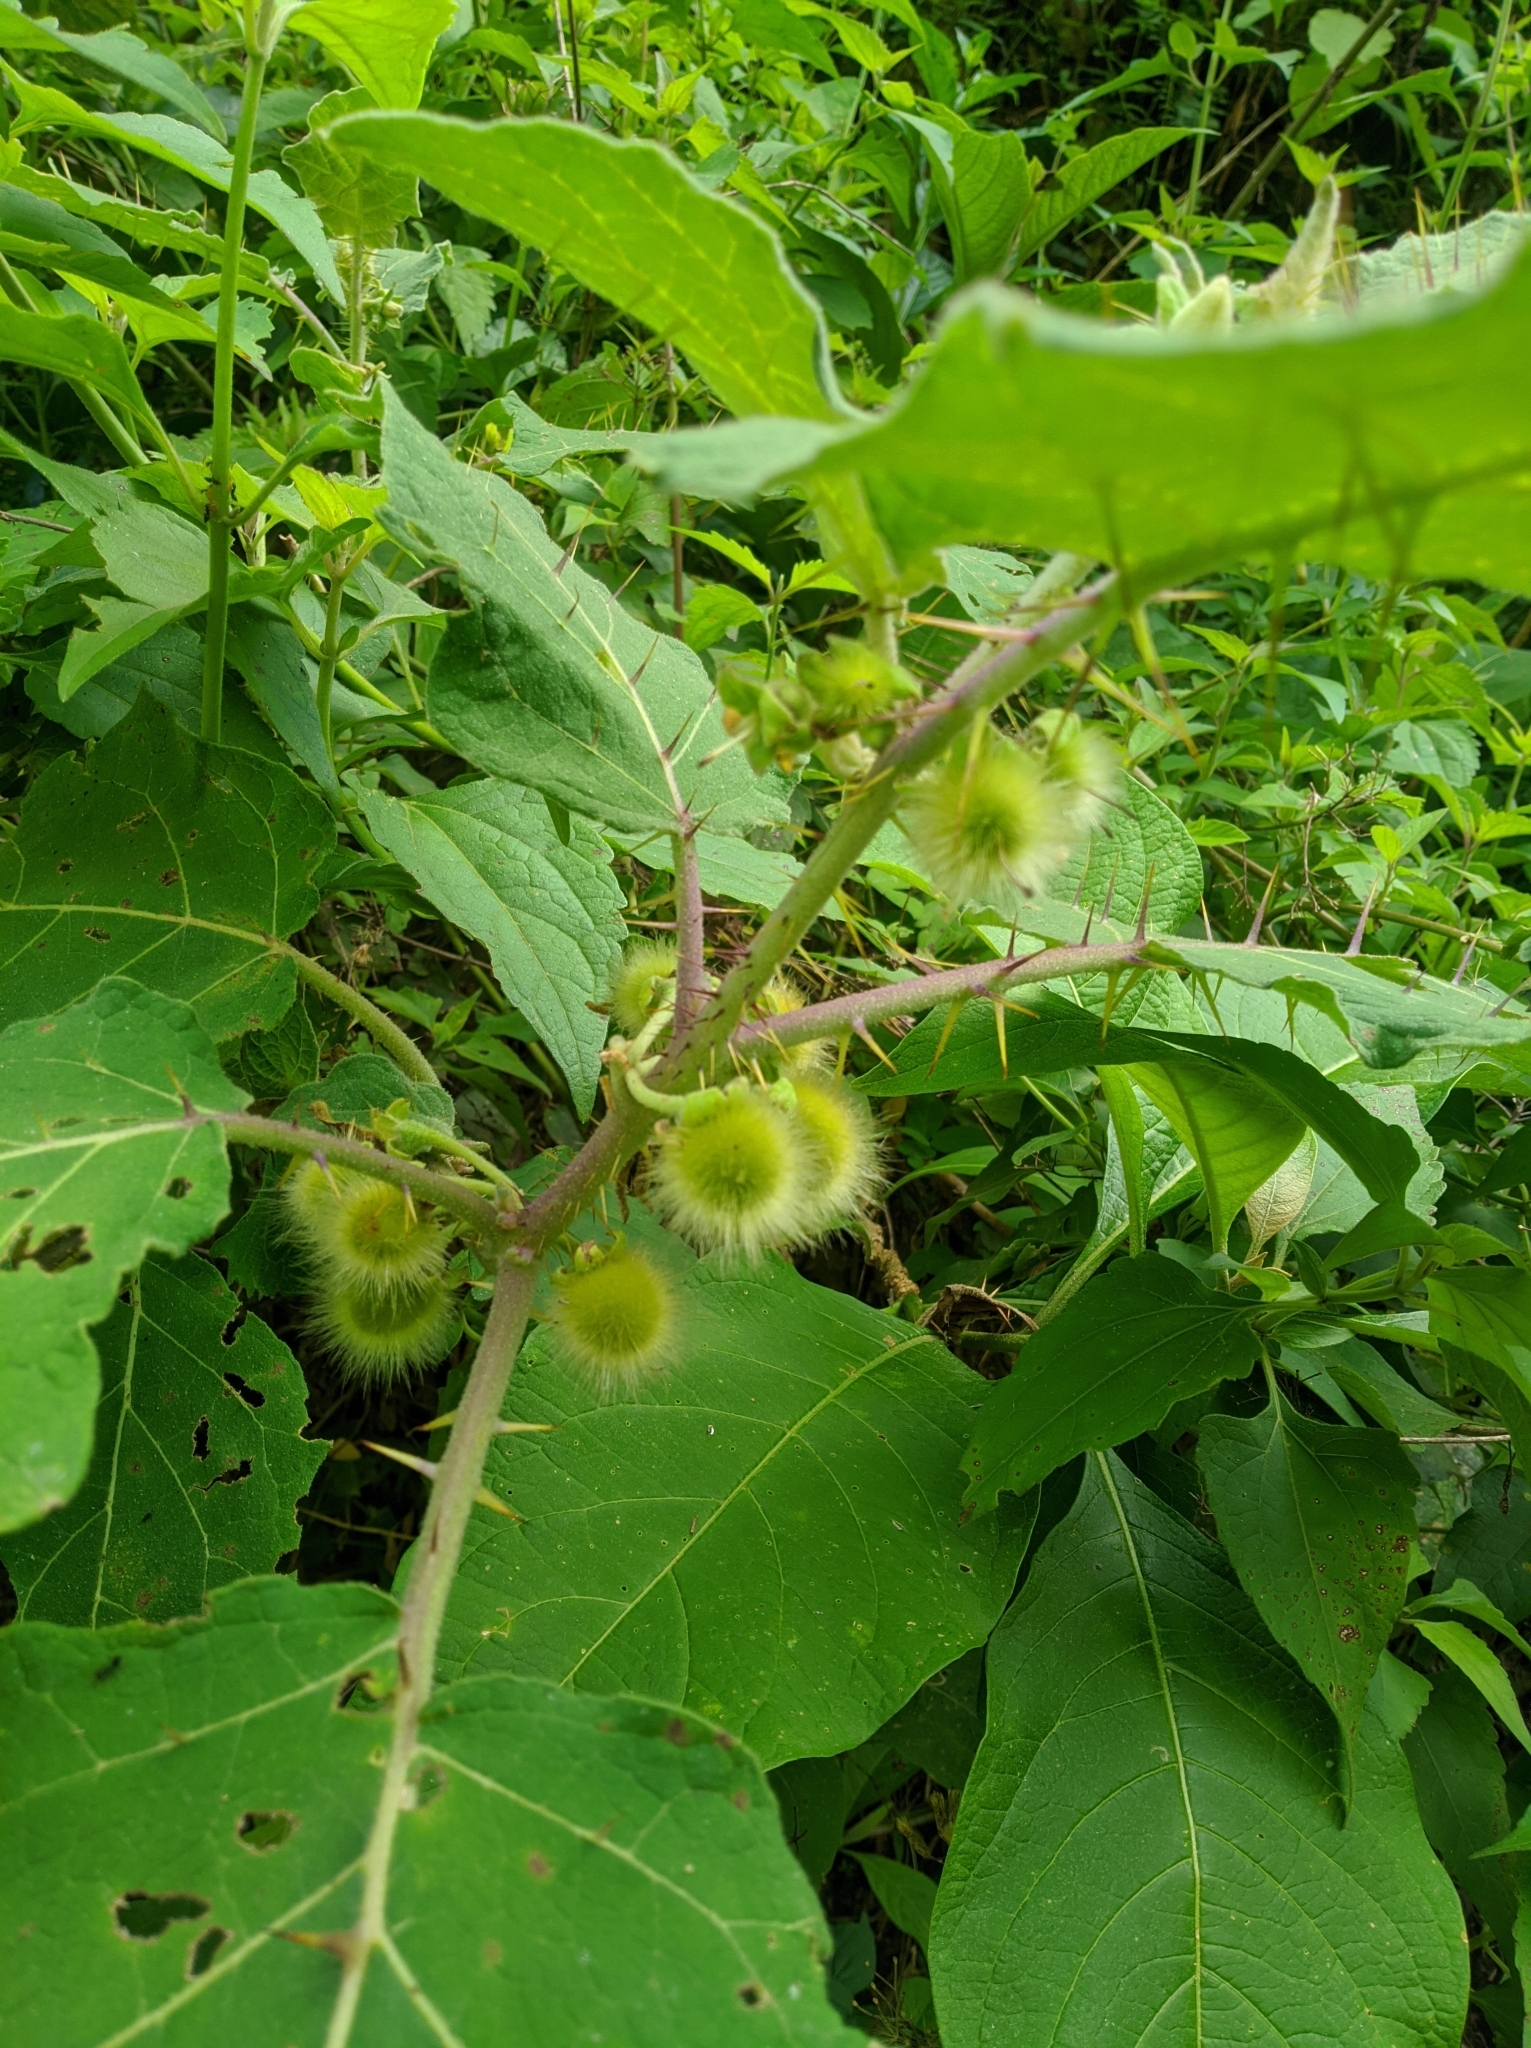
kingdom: Plantae
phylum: Tracheophyta
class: Magnoliopsida
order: Solanales
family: Solanaceae
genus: Solanum
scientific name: Solanum hirtum
